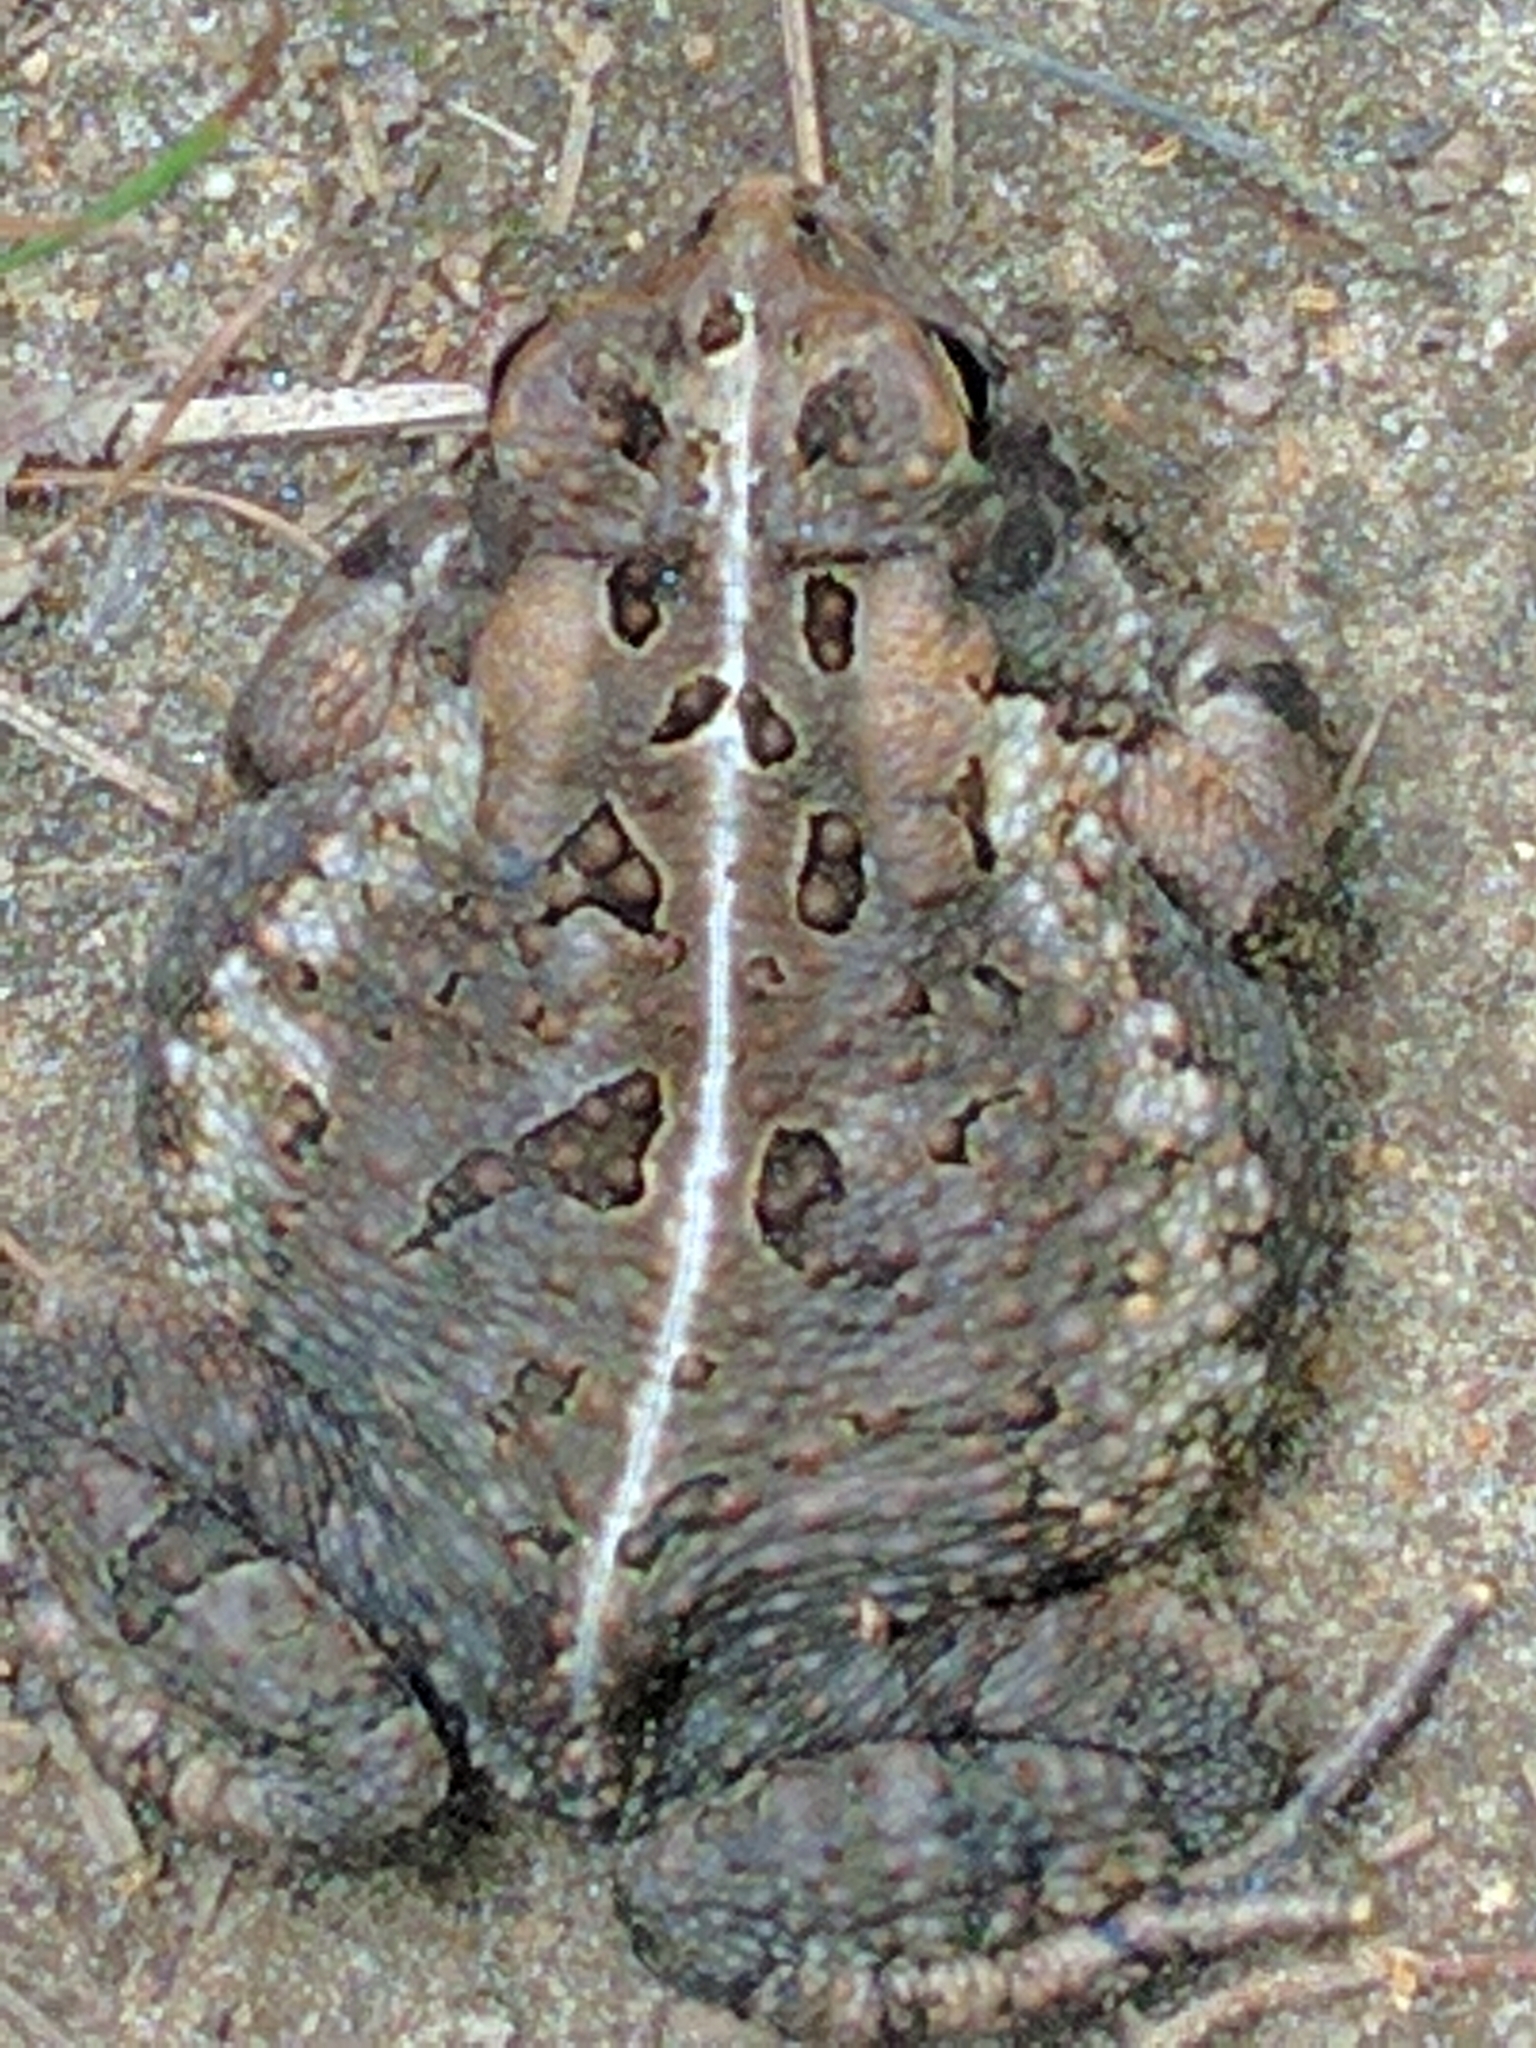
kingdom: Animalia
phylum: Chordata
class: Amphibia
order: Anura
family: Bufonidae
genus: Anaxyrus
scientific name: Anaxyrus fowleri
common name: Fowler's toad
